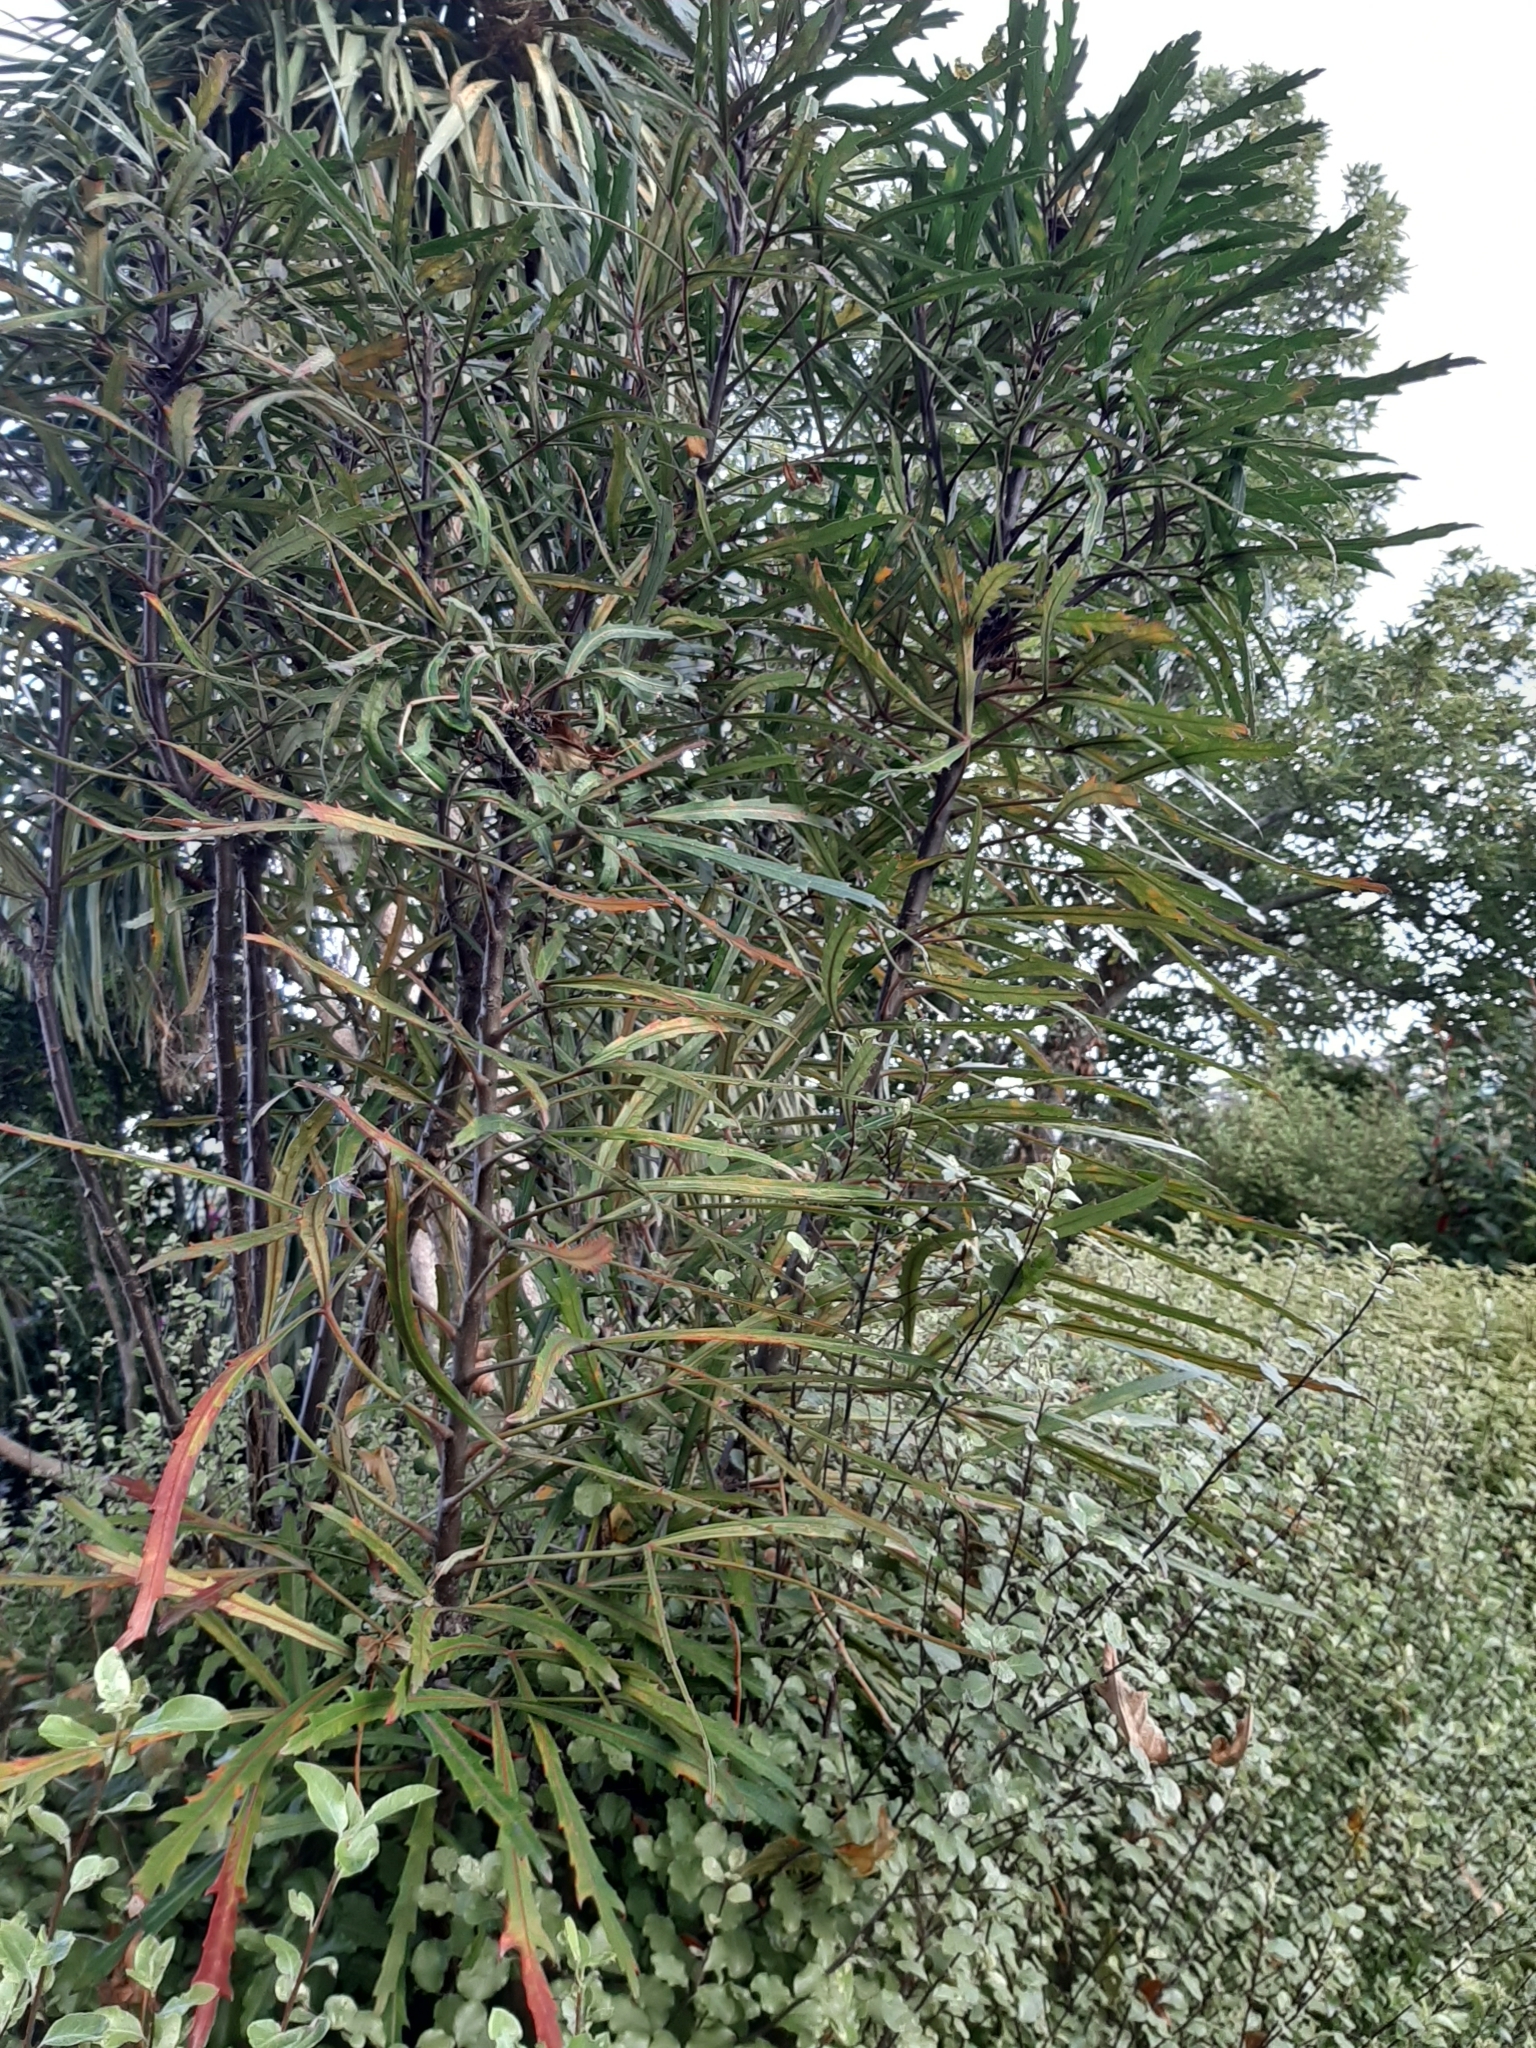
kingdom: Plantae
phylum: Tracheophyta
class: Magnoliopsida
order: Apiales
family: Araliaceae
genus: Pseudopanax
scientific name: Pseudopanax
